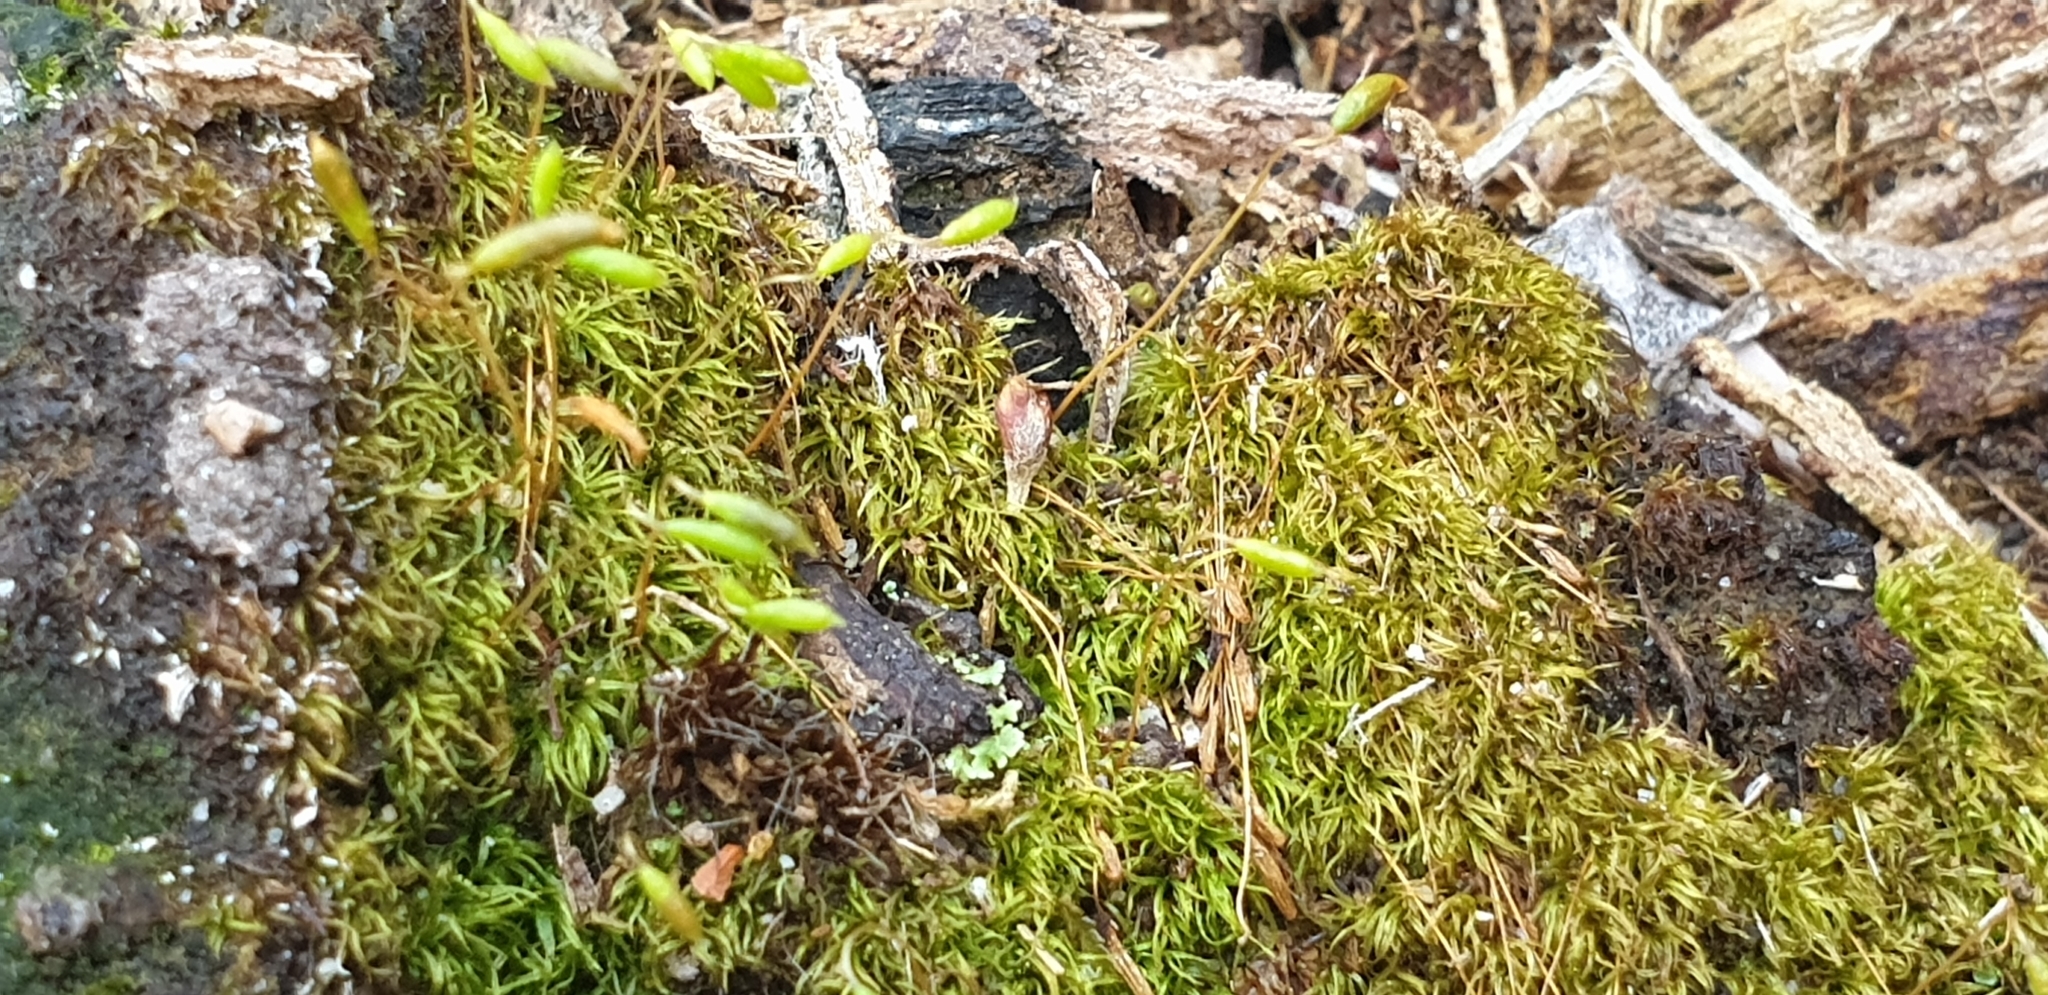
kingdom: Plantae
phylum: Bryophyta
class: Bryopsida
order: Orthodontiales
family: Orthodontiaceae
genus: Orthodontium
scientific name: Orthodontium lineare
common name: Cape thread-moss
